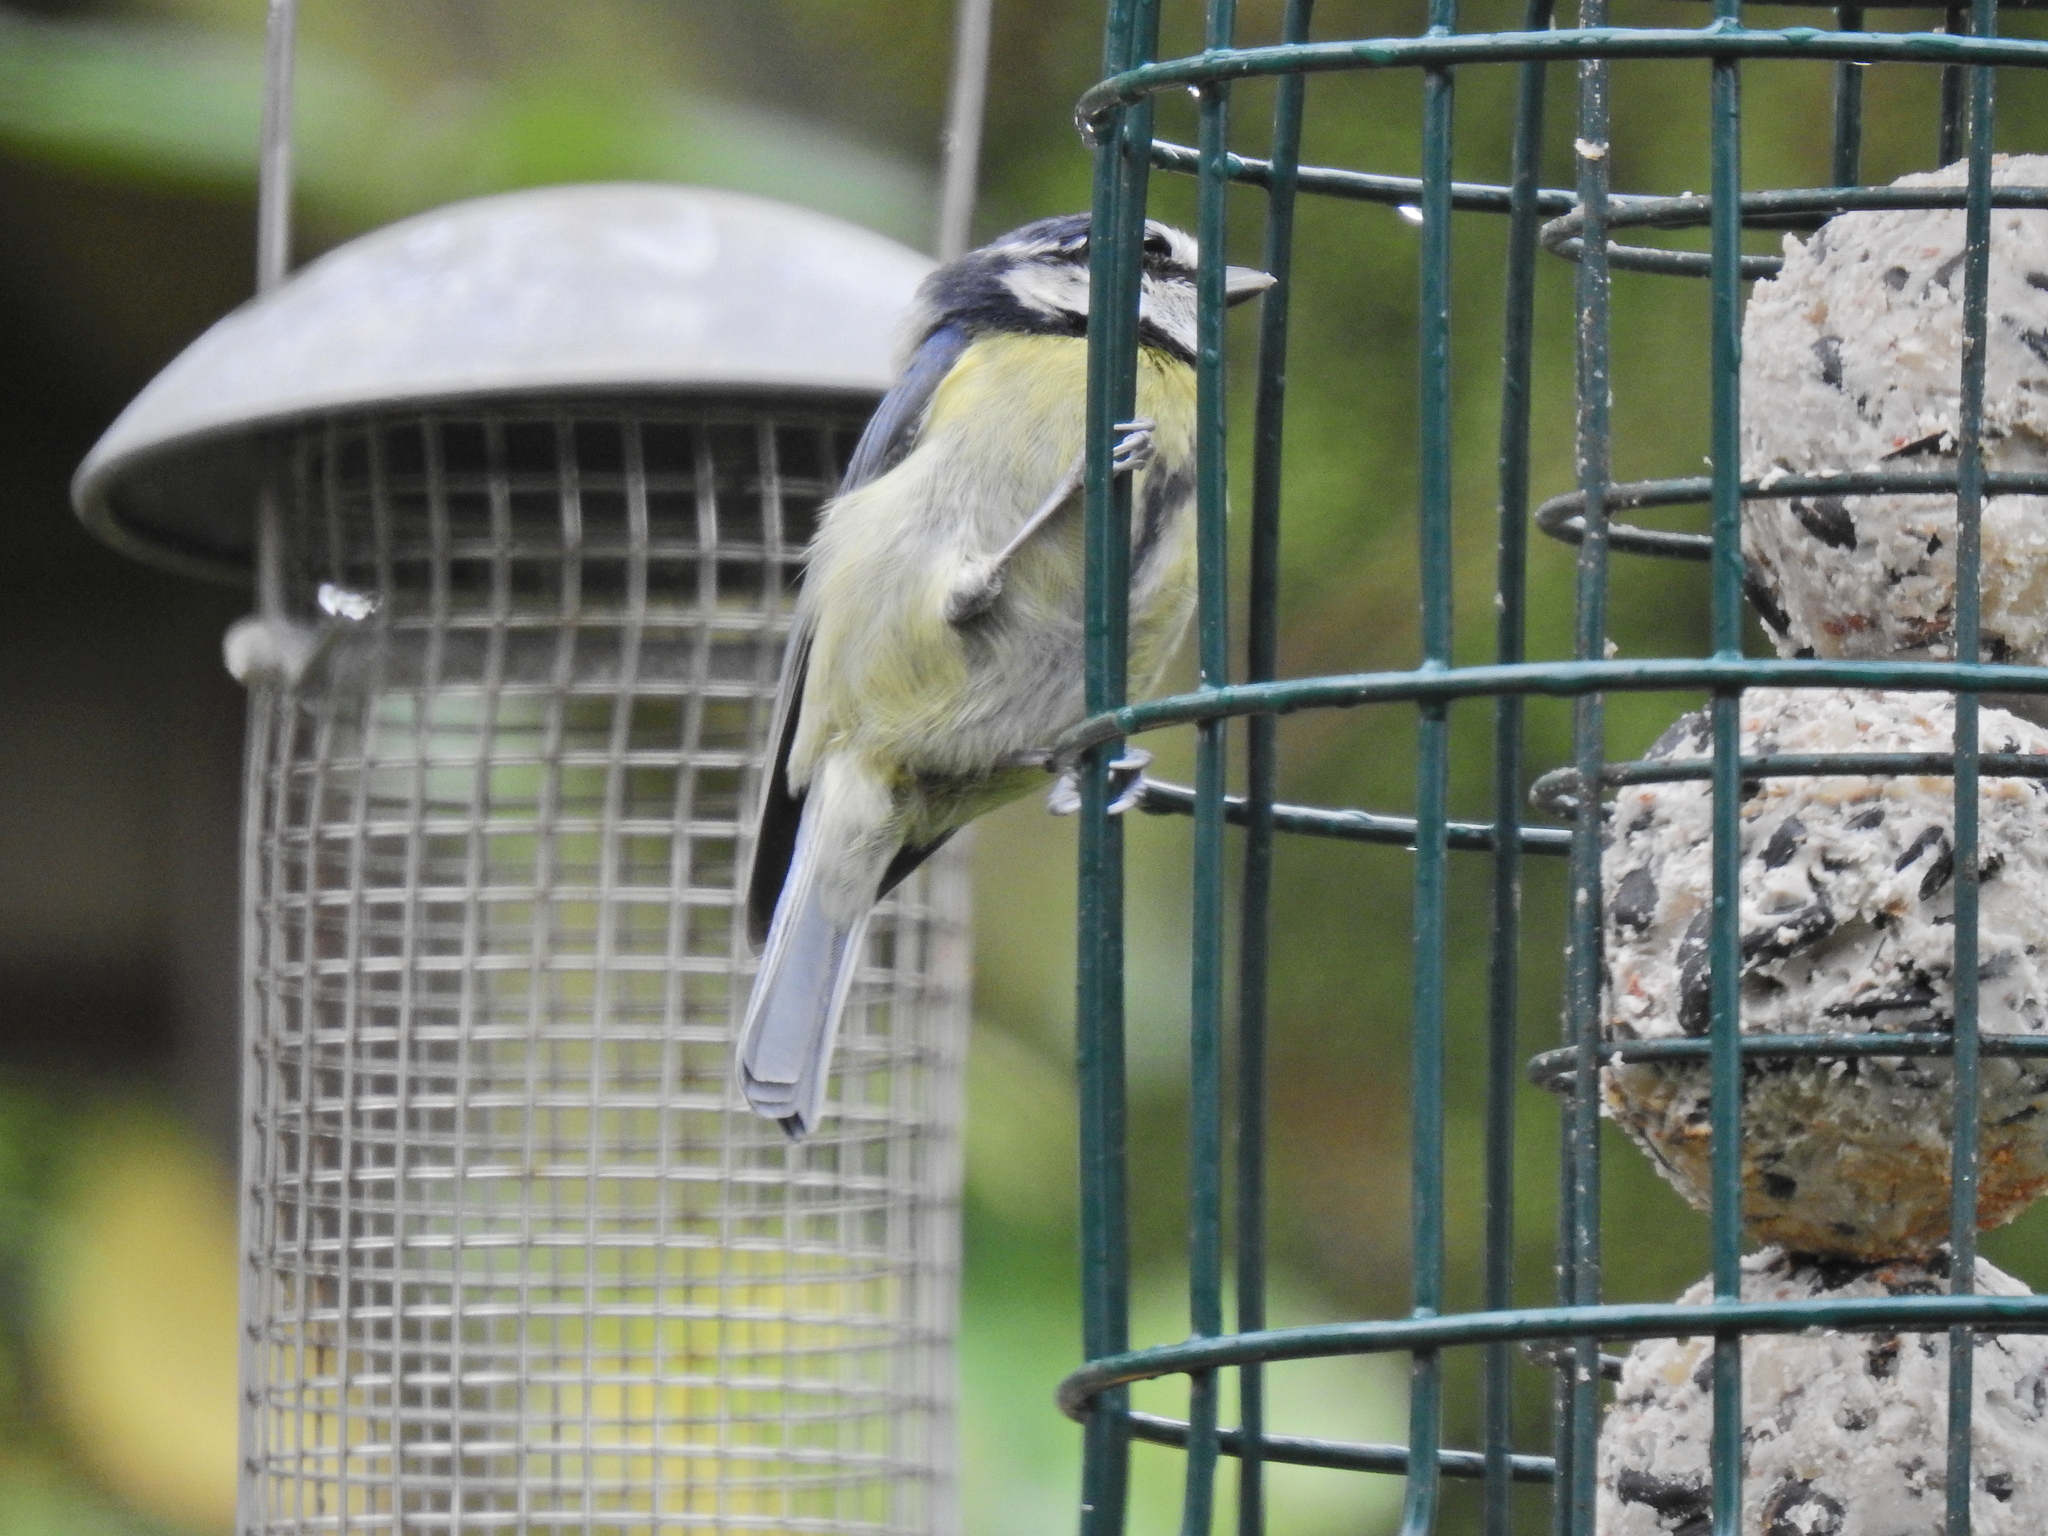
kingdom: Animalia
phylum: Chordata
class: Aves
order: Passeriformes
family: Paridae
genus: Cyanistes
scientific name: Cyanistes caeruleus
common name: Eurasian blue tit
